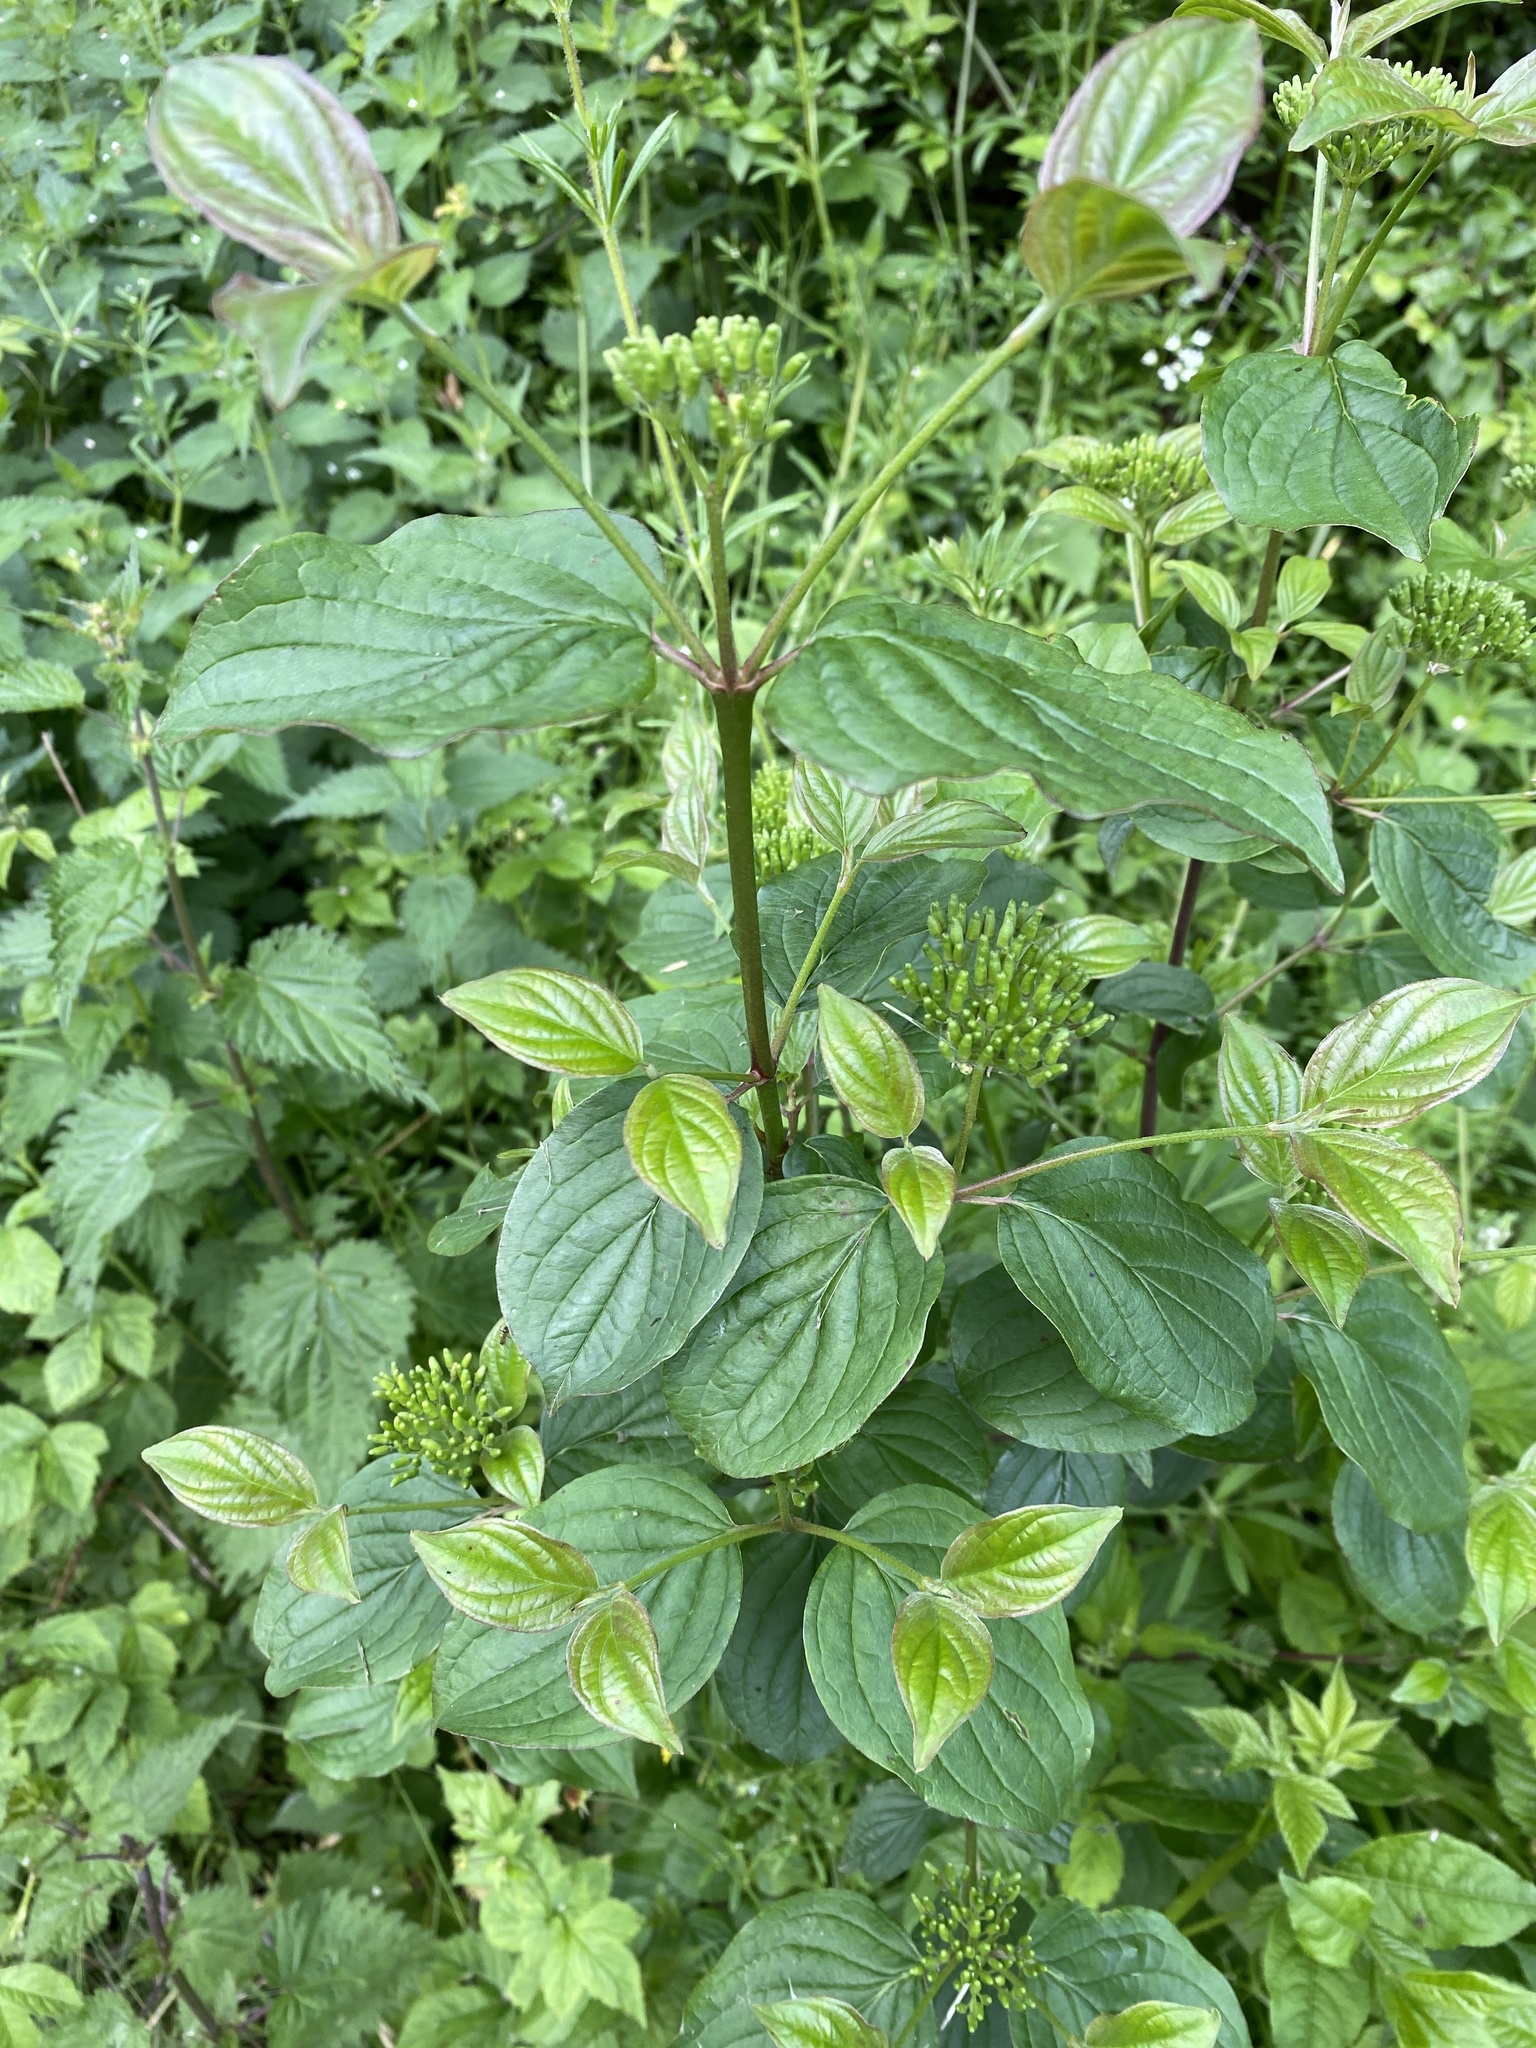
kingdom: Plantae
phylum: Tracheophyta
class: Magnoliopsida
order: Cornales
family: Cornaceae
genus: Cornus
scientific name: Cornus sanguinea
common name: Dogwood
